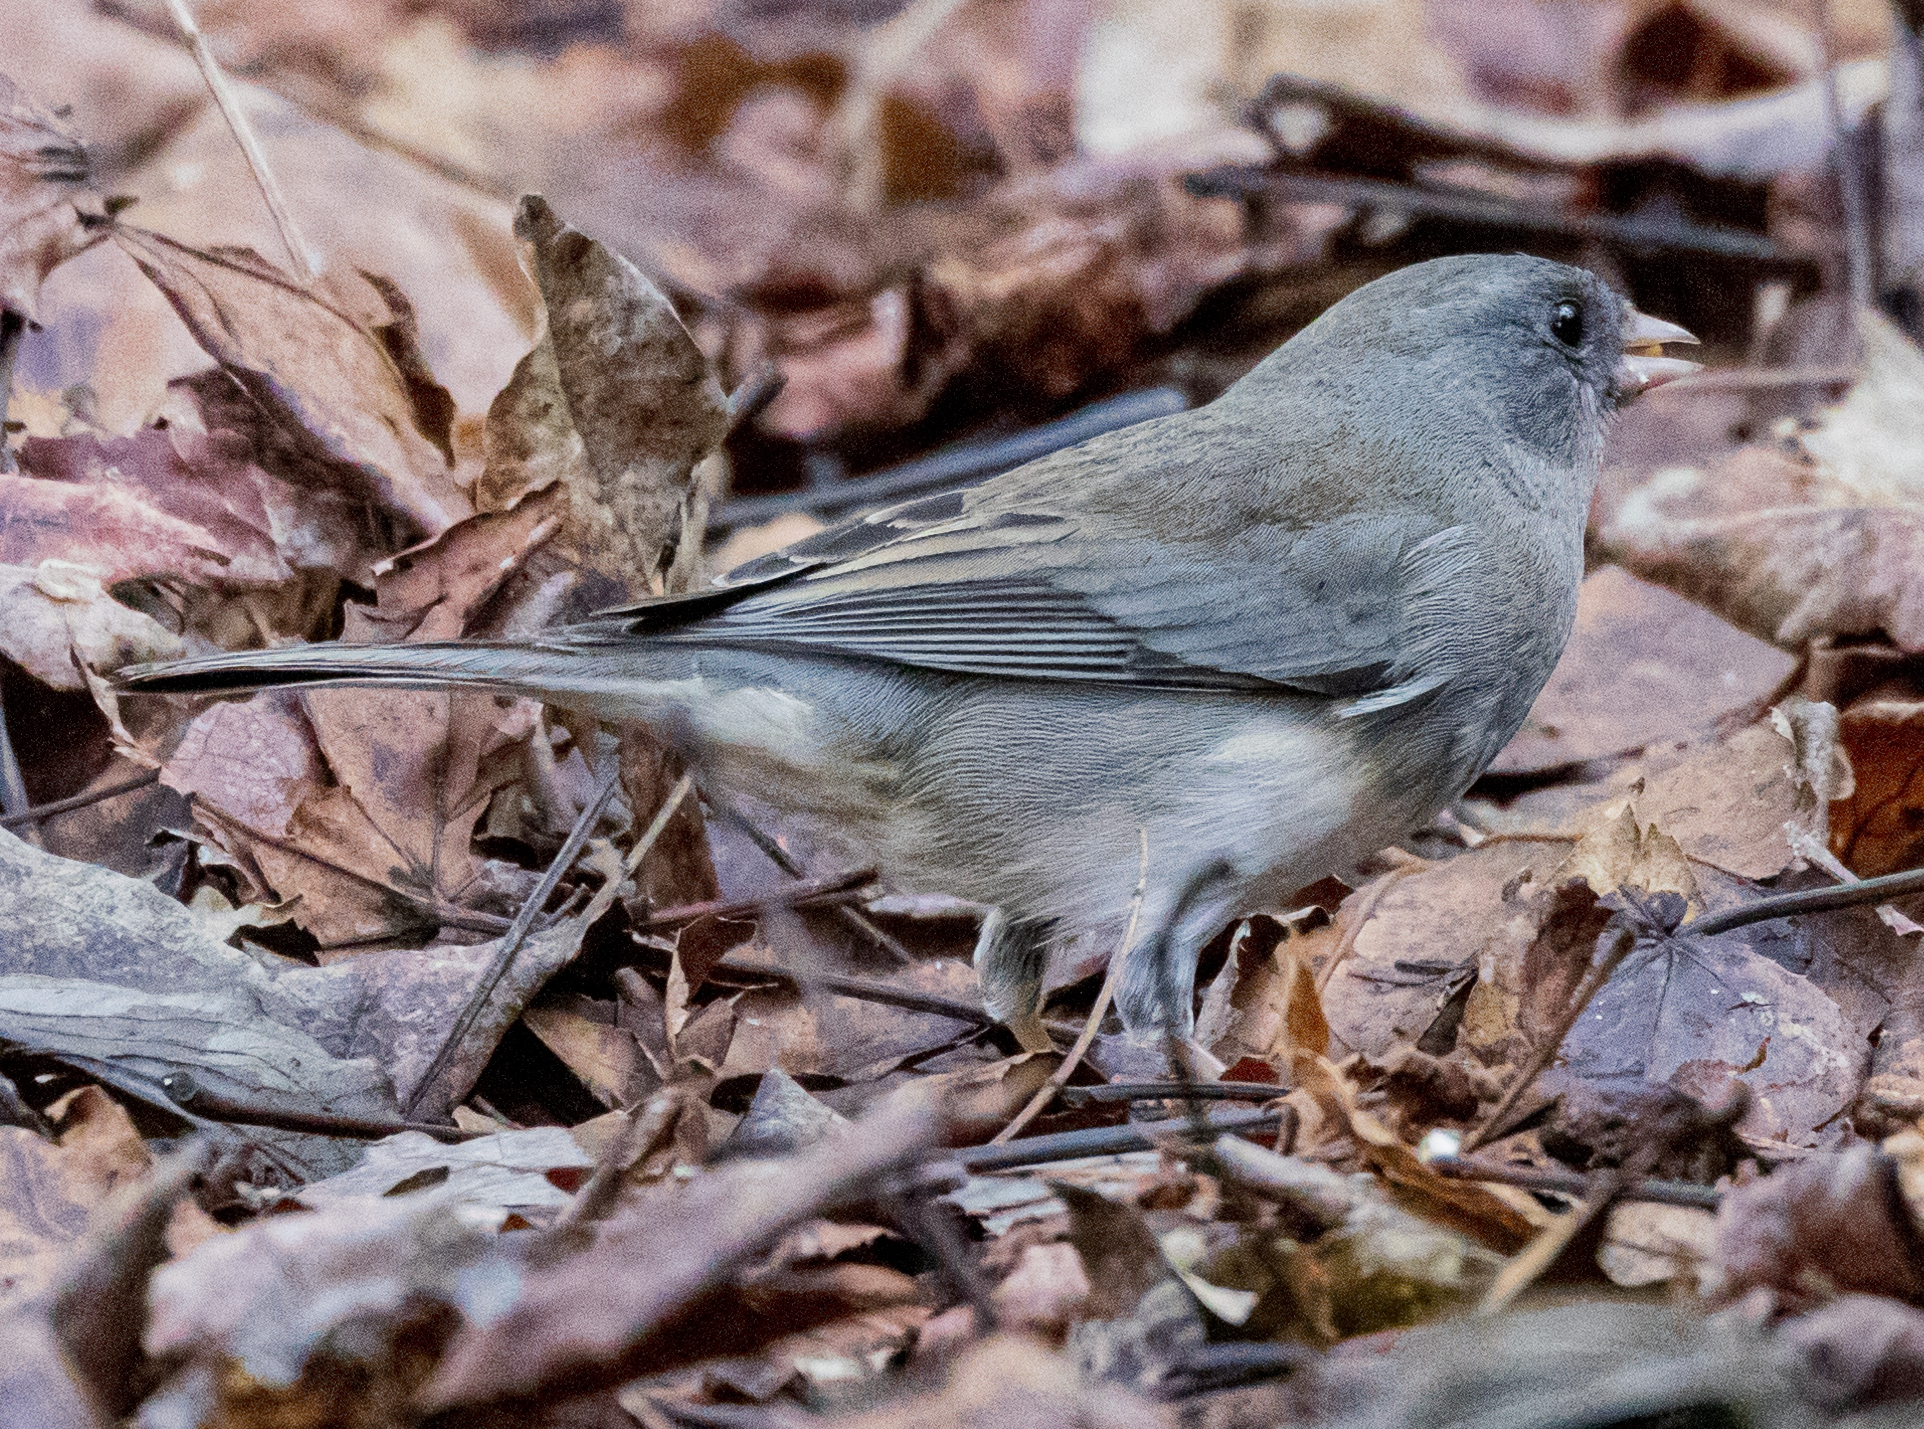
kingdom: Animalia
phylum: Chordata
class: Aves
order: Passeriformes
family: Passerellidae
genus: Junco
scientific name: Junco hyemalis
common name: Dark-eyed junco
